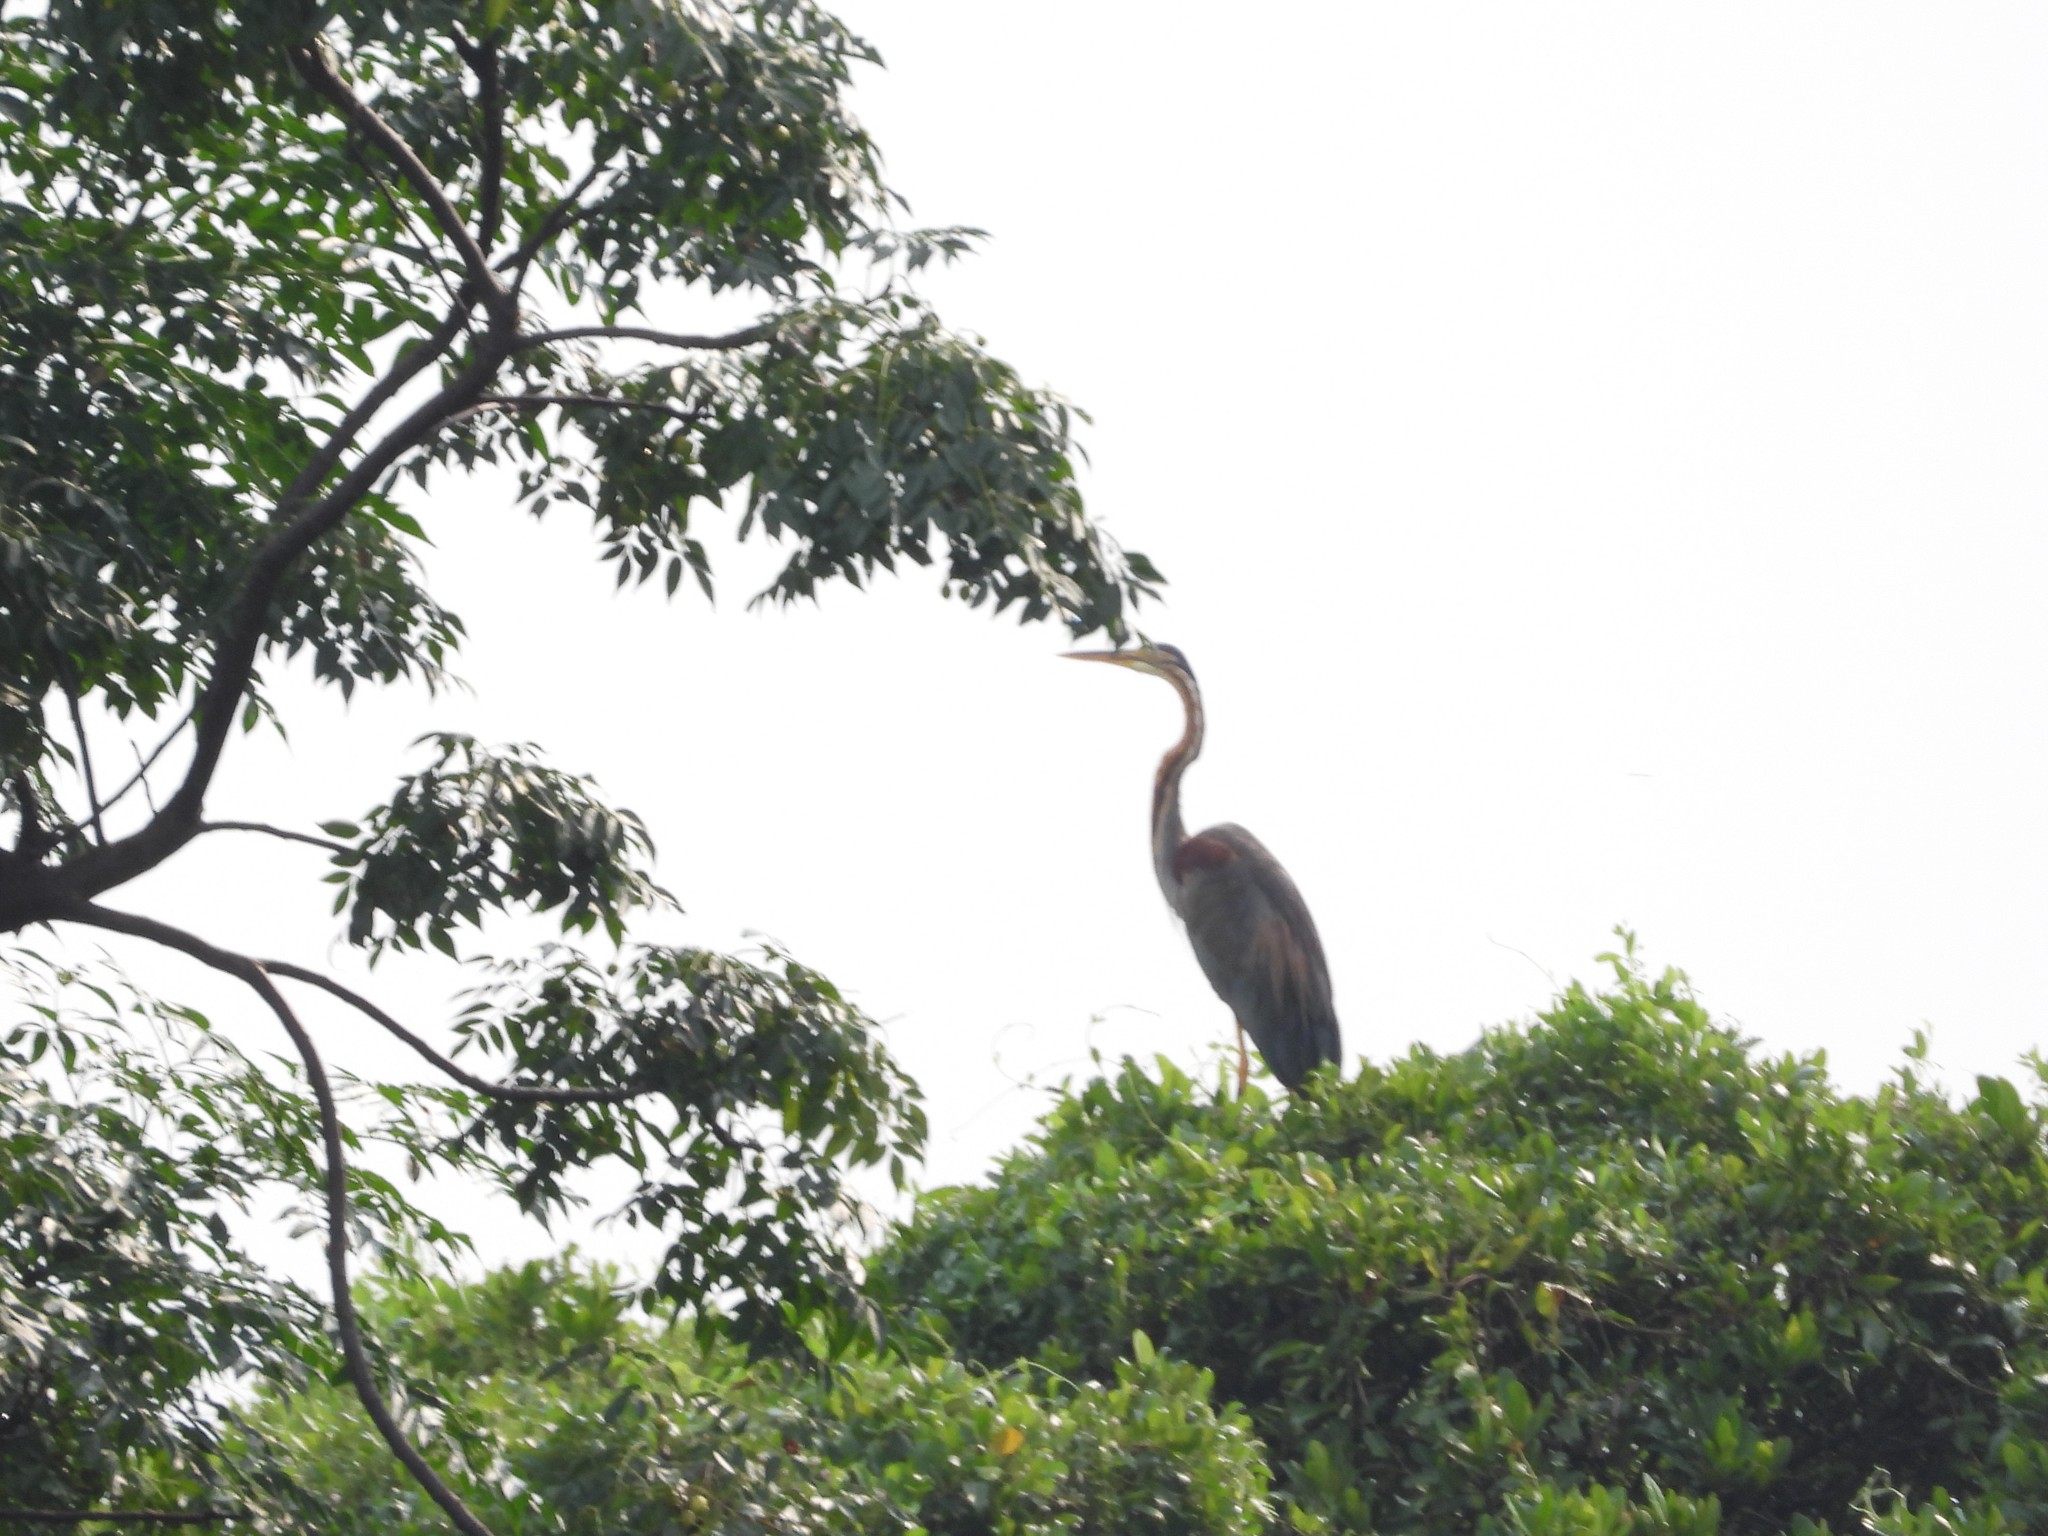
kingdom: Animalia
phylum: Chordata
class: Aves
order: Pelecaniformes
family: Ardeidae
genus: Ardea
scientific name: Ardea purpurea
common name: Purple heron
